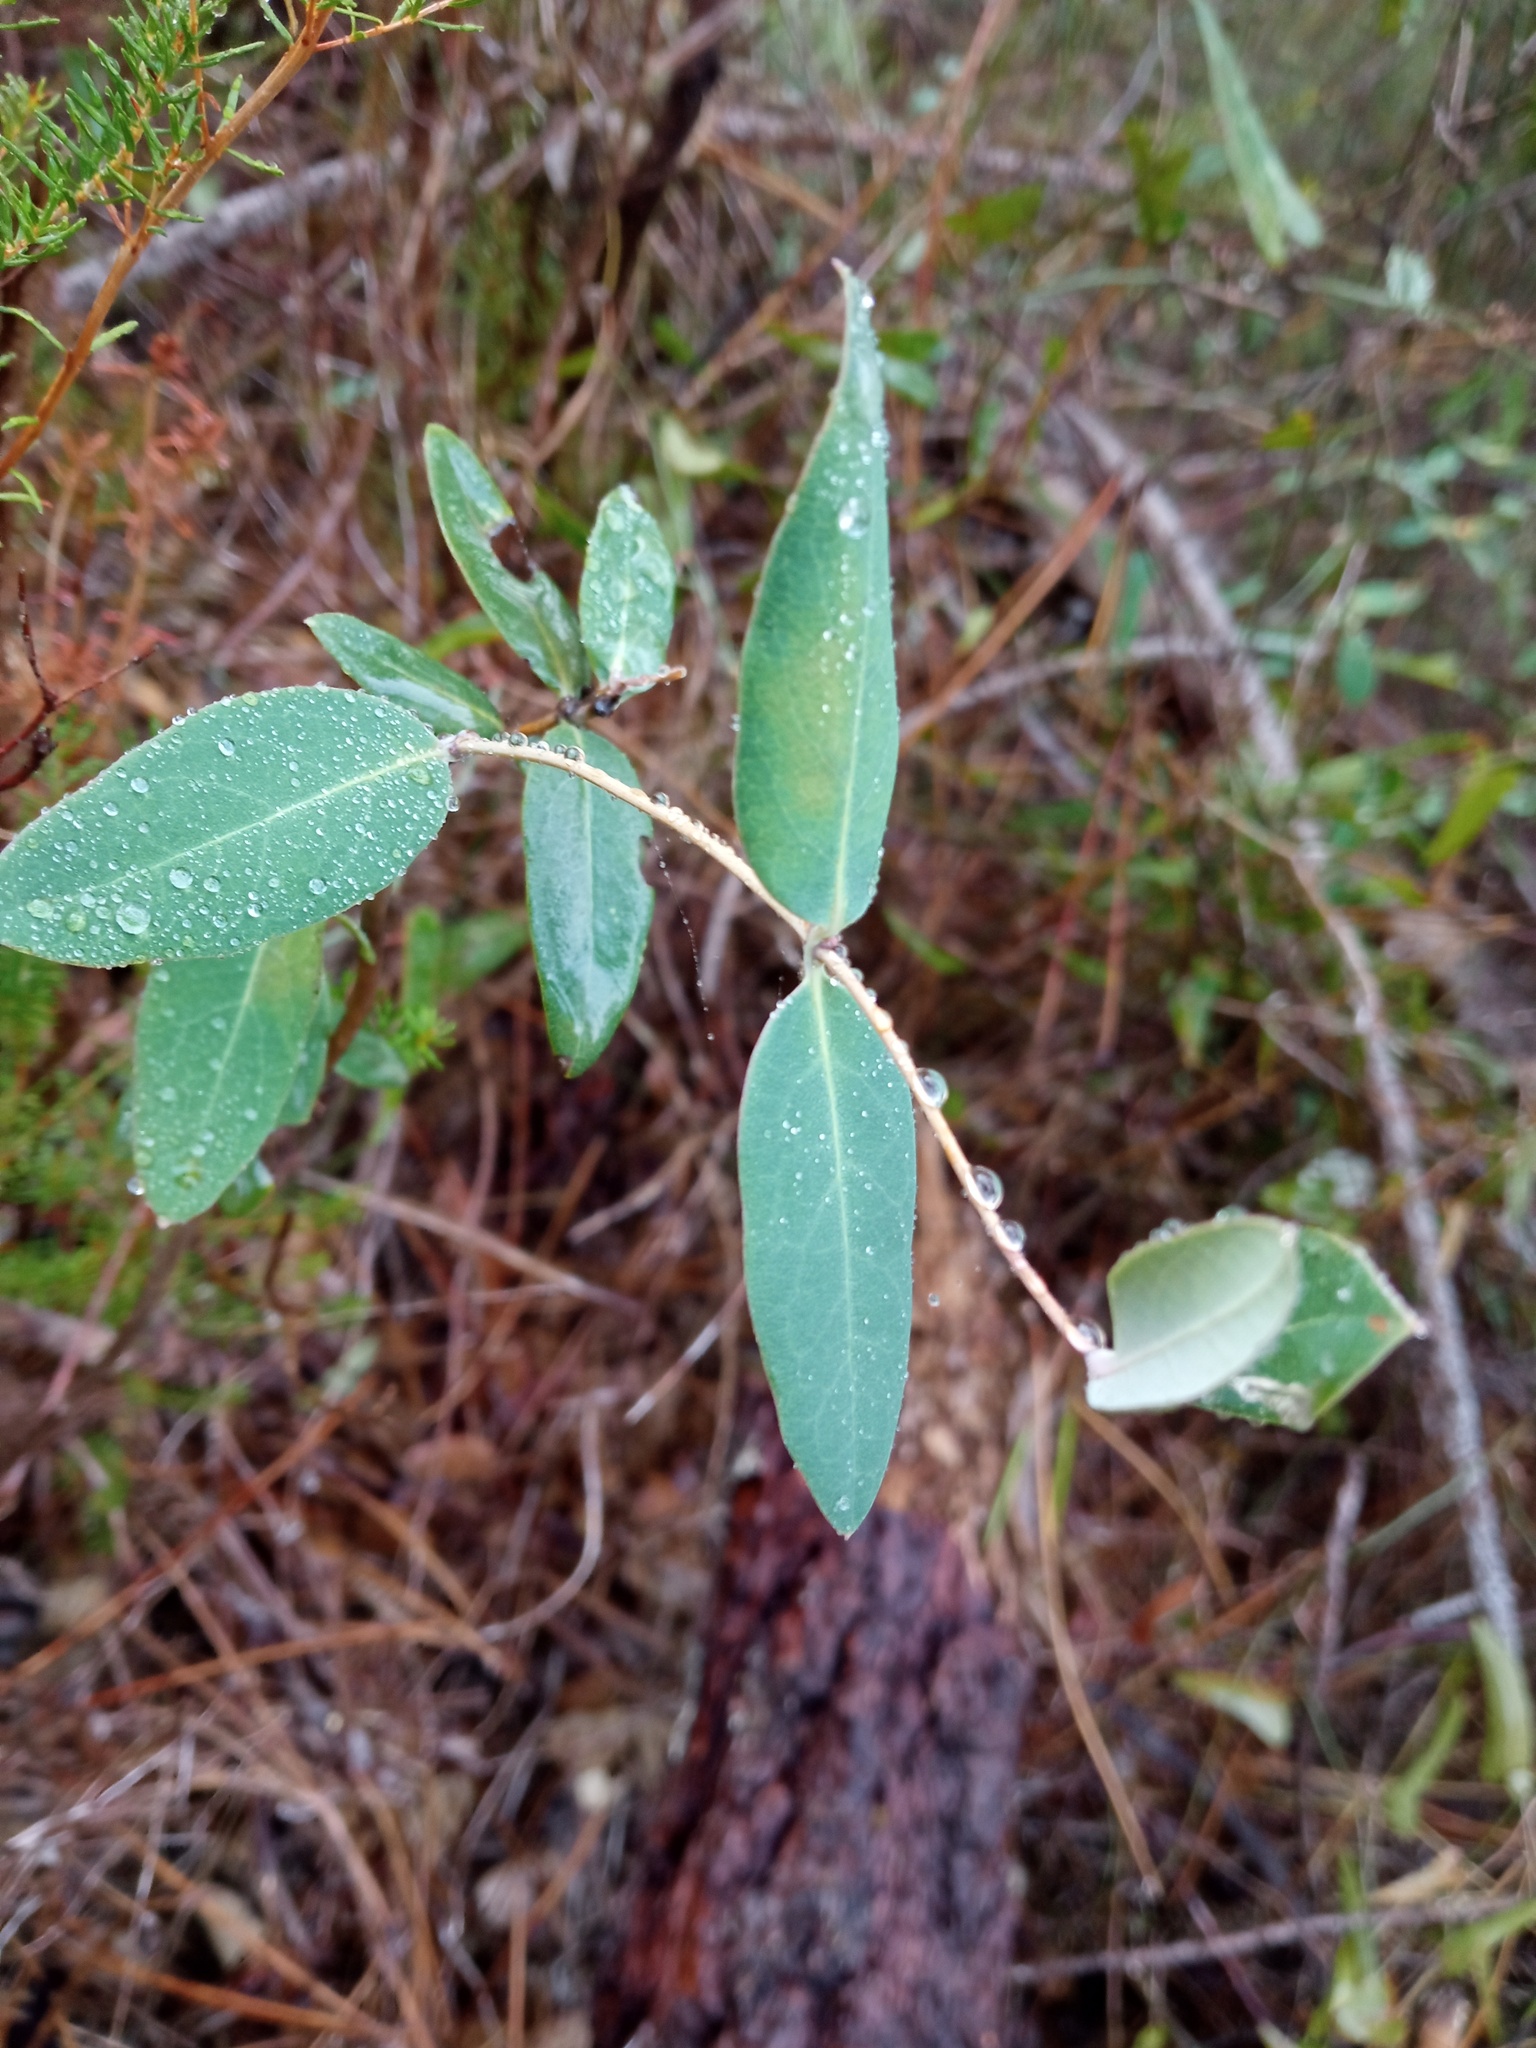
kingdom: Plantae
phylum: Tracheophyta
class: Magnoliopsida
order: Dipsacales
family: Caprifoliaceae
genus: Lonicera
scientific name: Lonicera implexa
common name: Minorca honeysuckle
